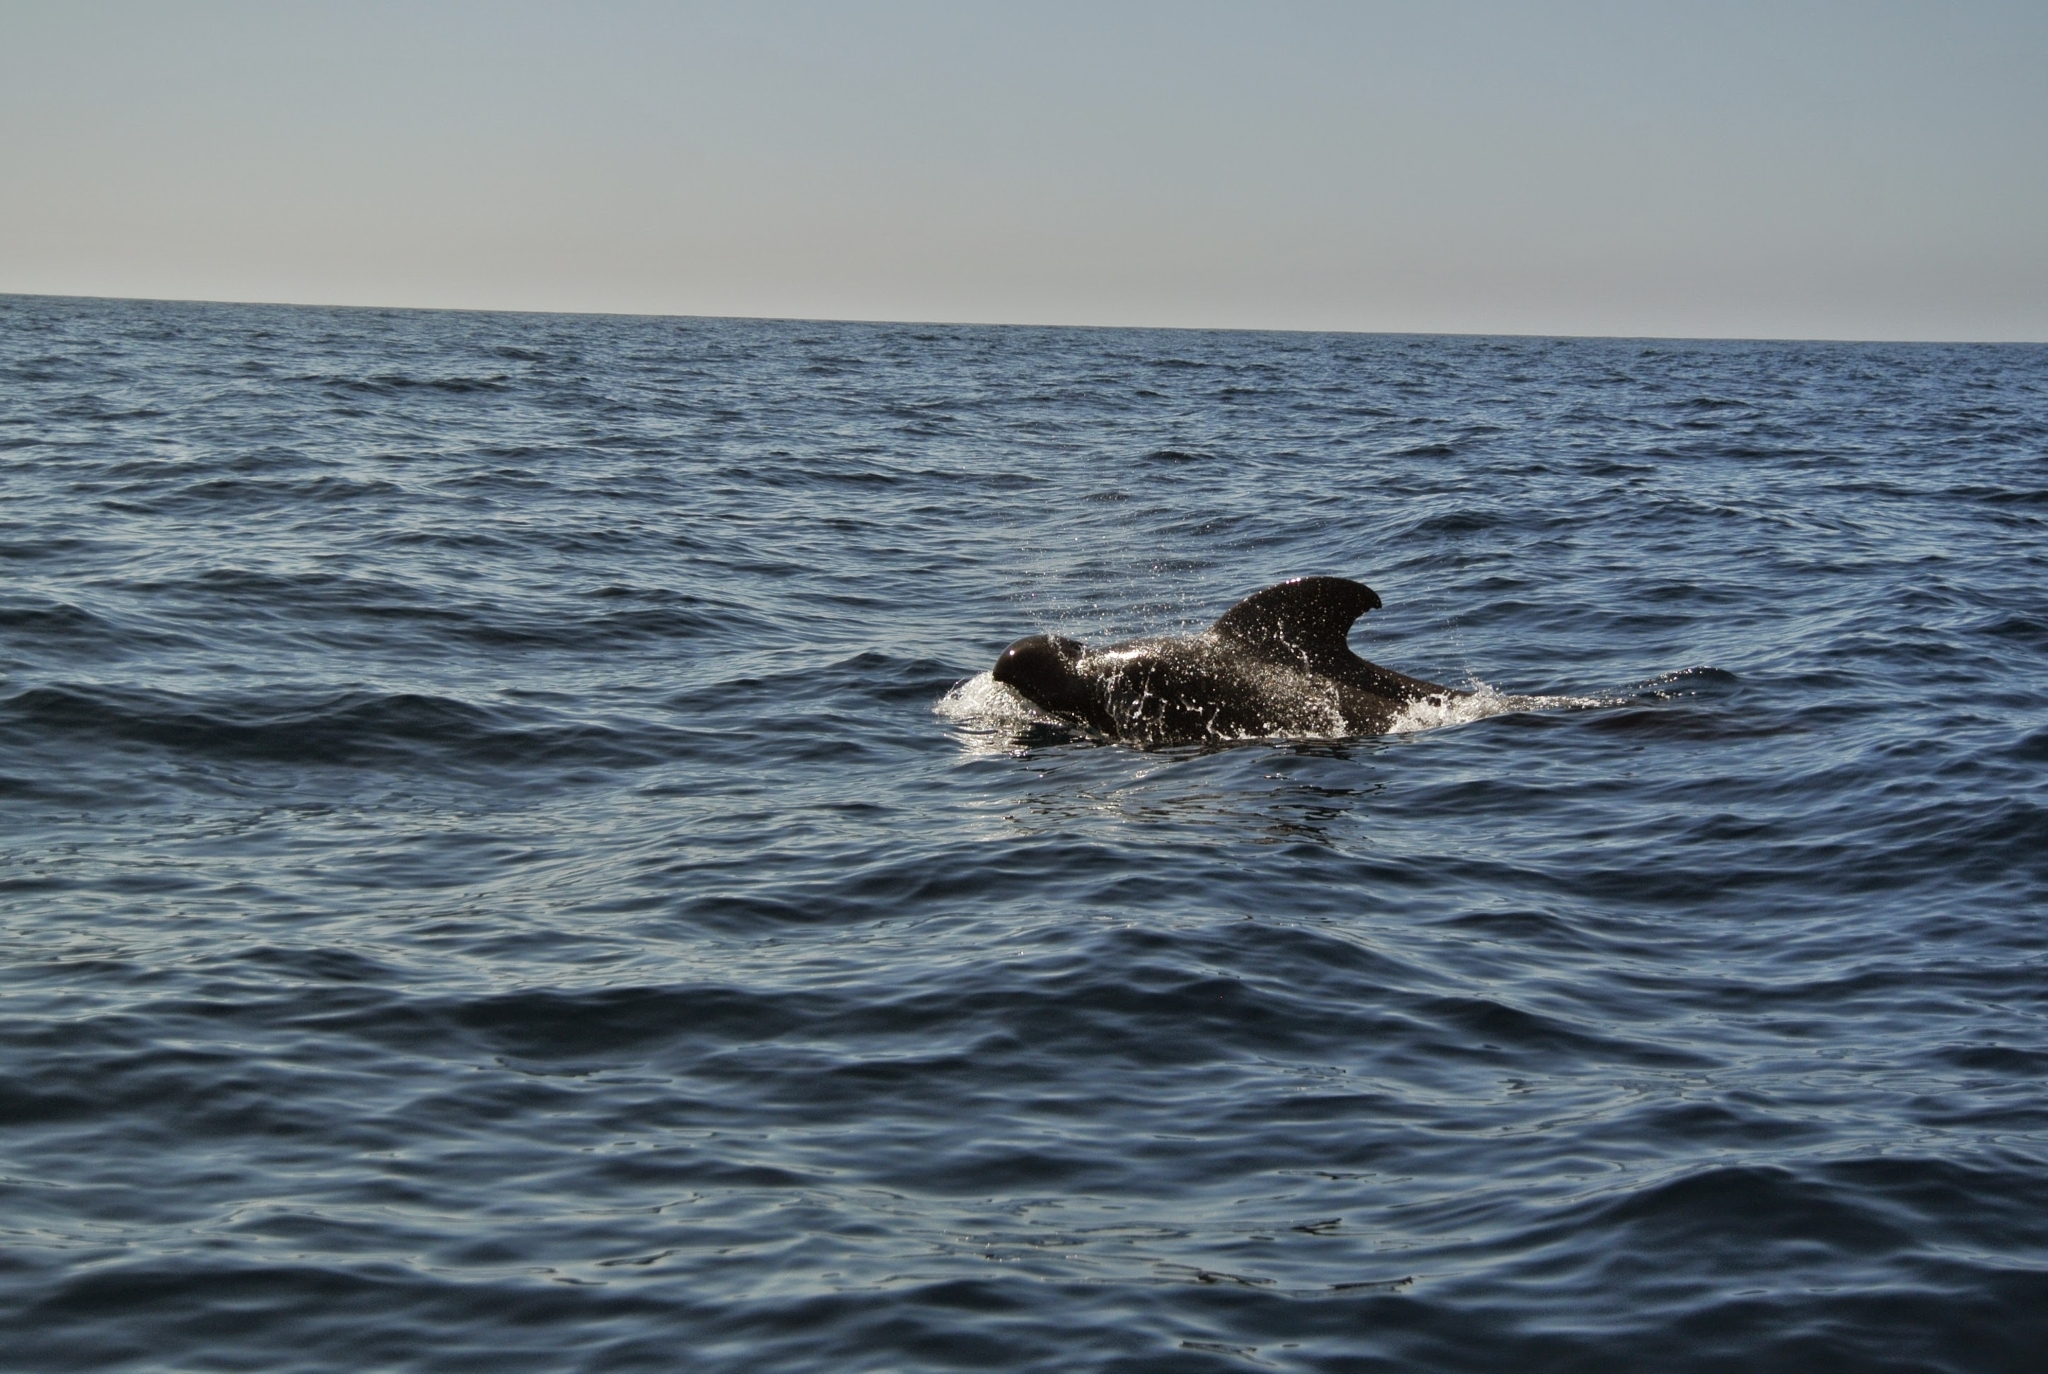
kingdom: Animalia
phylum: Chordata
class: Mammalia
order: Cetacea
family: Delphinidae
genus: Globicephala
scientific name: Globicephala macrorhynchus
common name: Short-finned pilot whale
